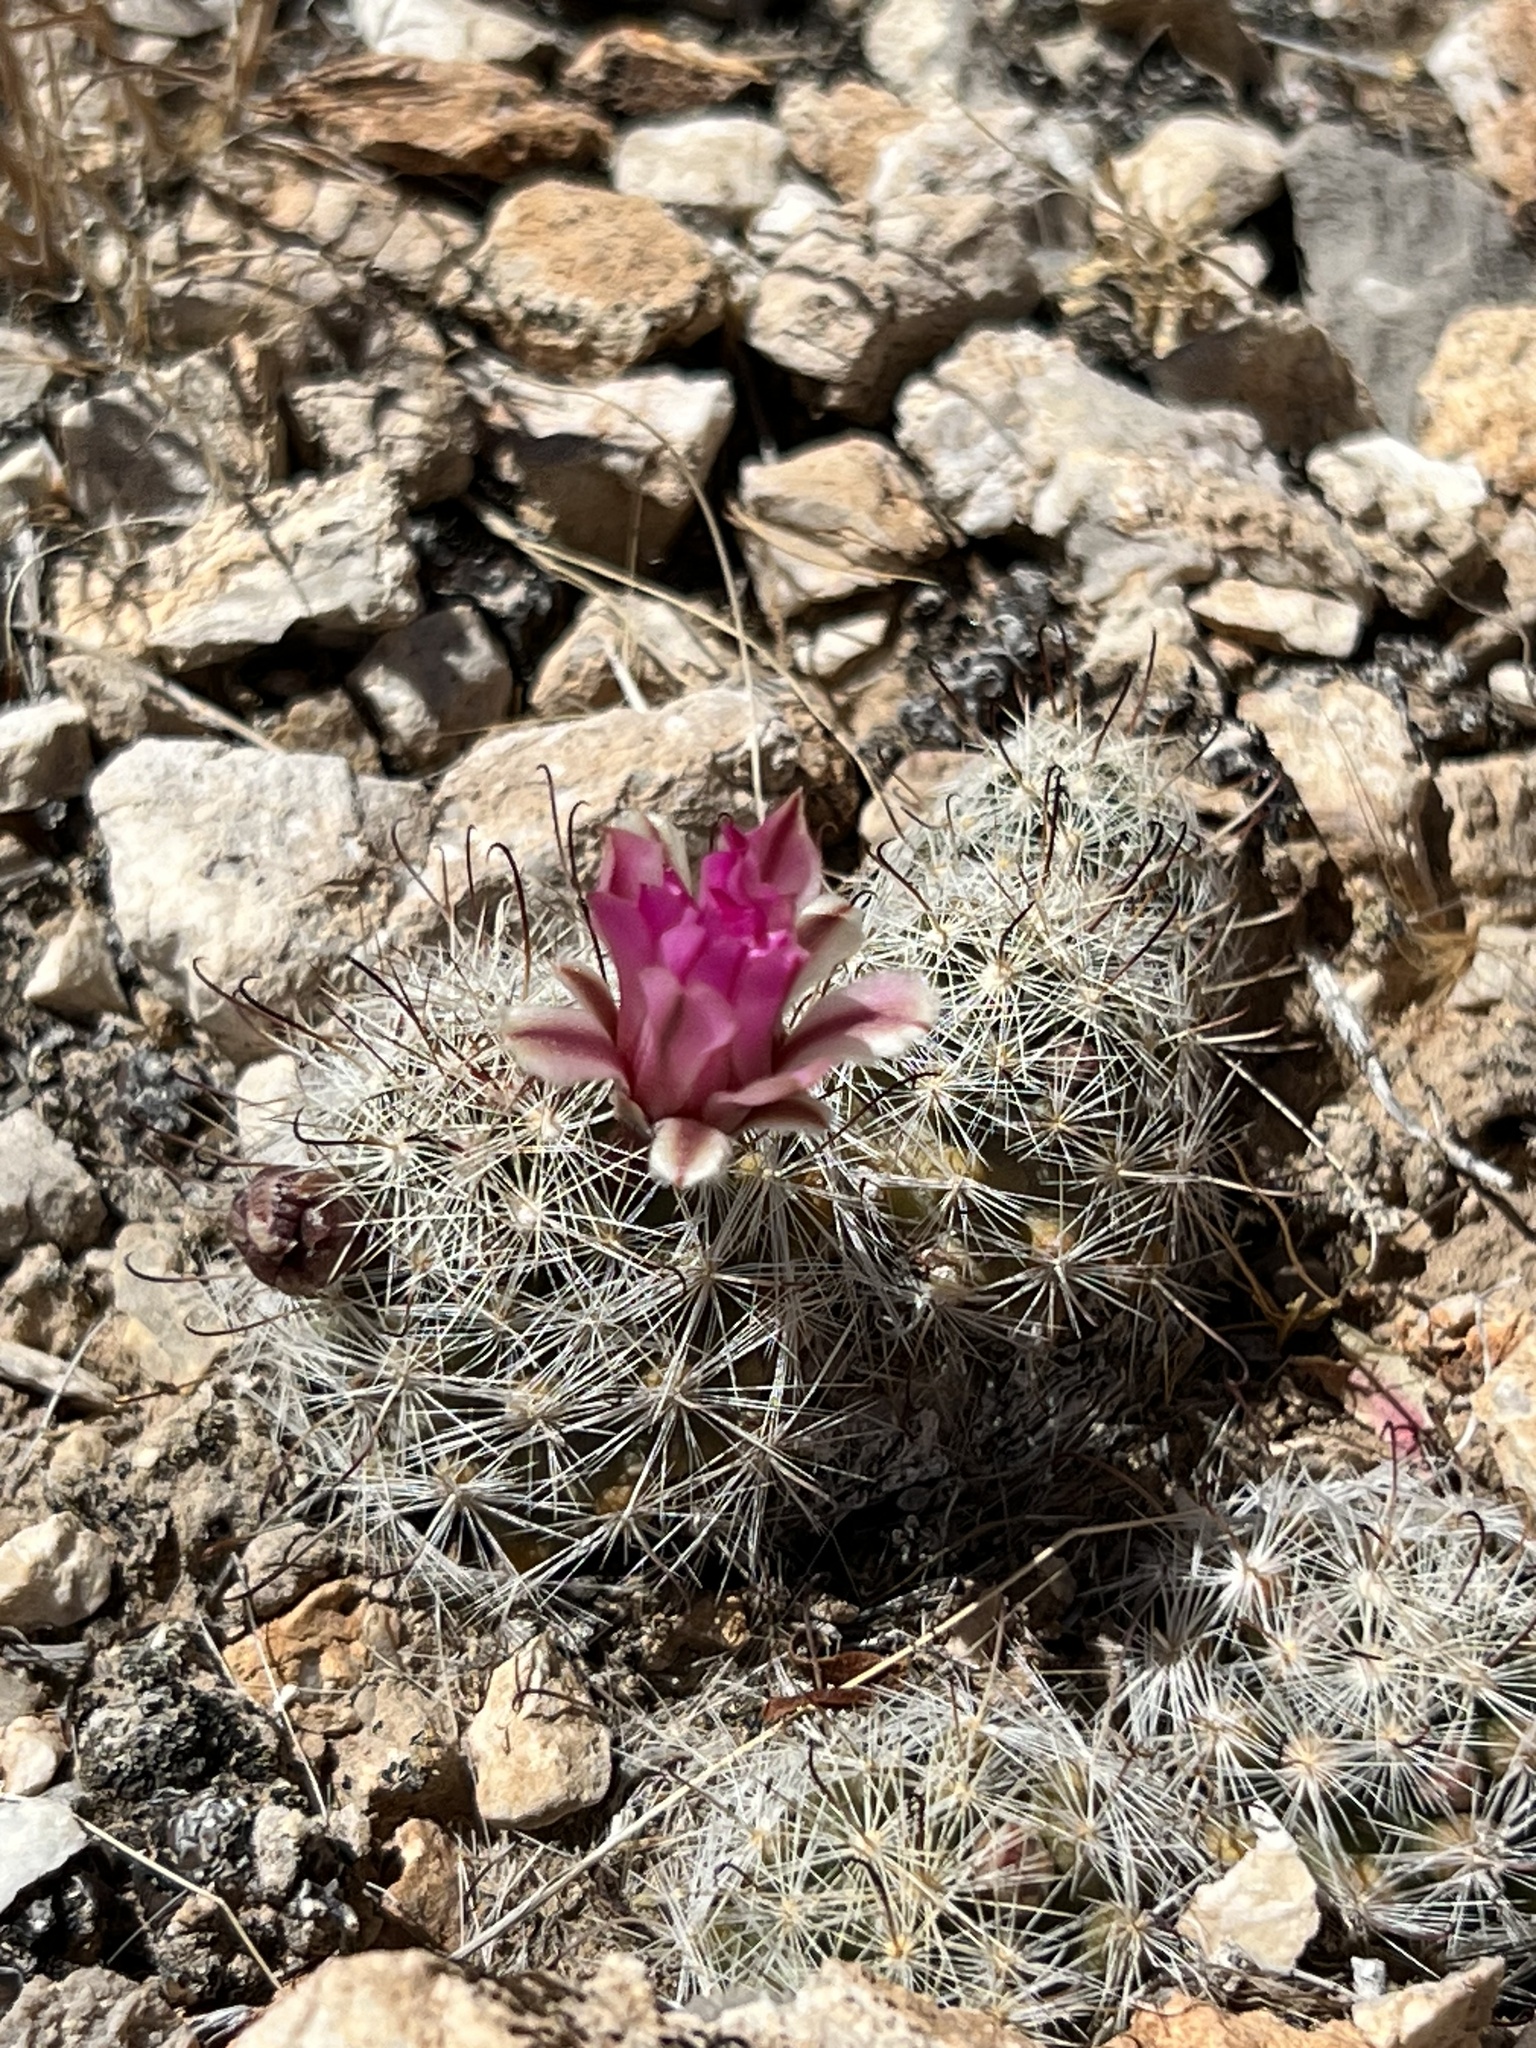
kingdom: Plantae
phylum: Tracheophyta
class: Magnoliopsida
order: Caryophyllales
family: Cactaceae
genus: Cochemiea
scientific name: Cochemiea tetrancistra
